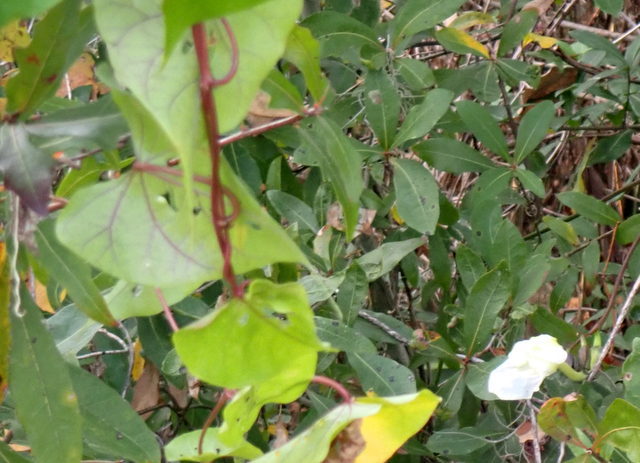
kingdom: Plantae
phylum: Tracheophyta
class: Magnoliopsida
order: Solanales
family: Convolvulaceae
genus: Ipomoea
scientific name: Ipomoea alba
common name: Moonflower
